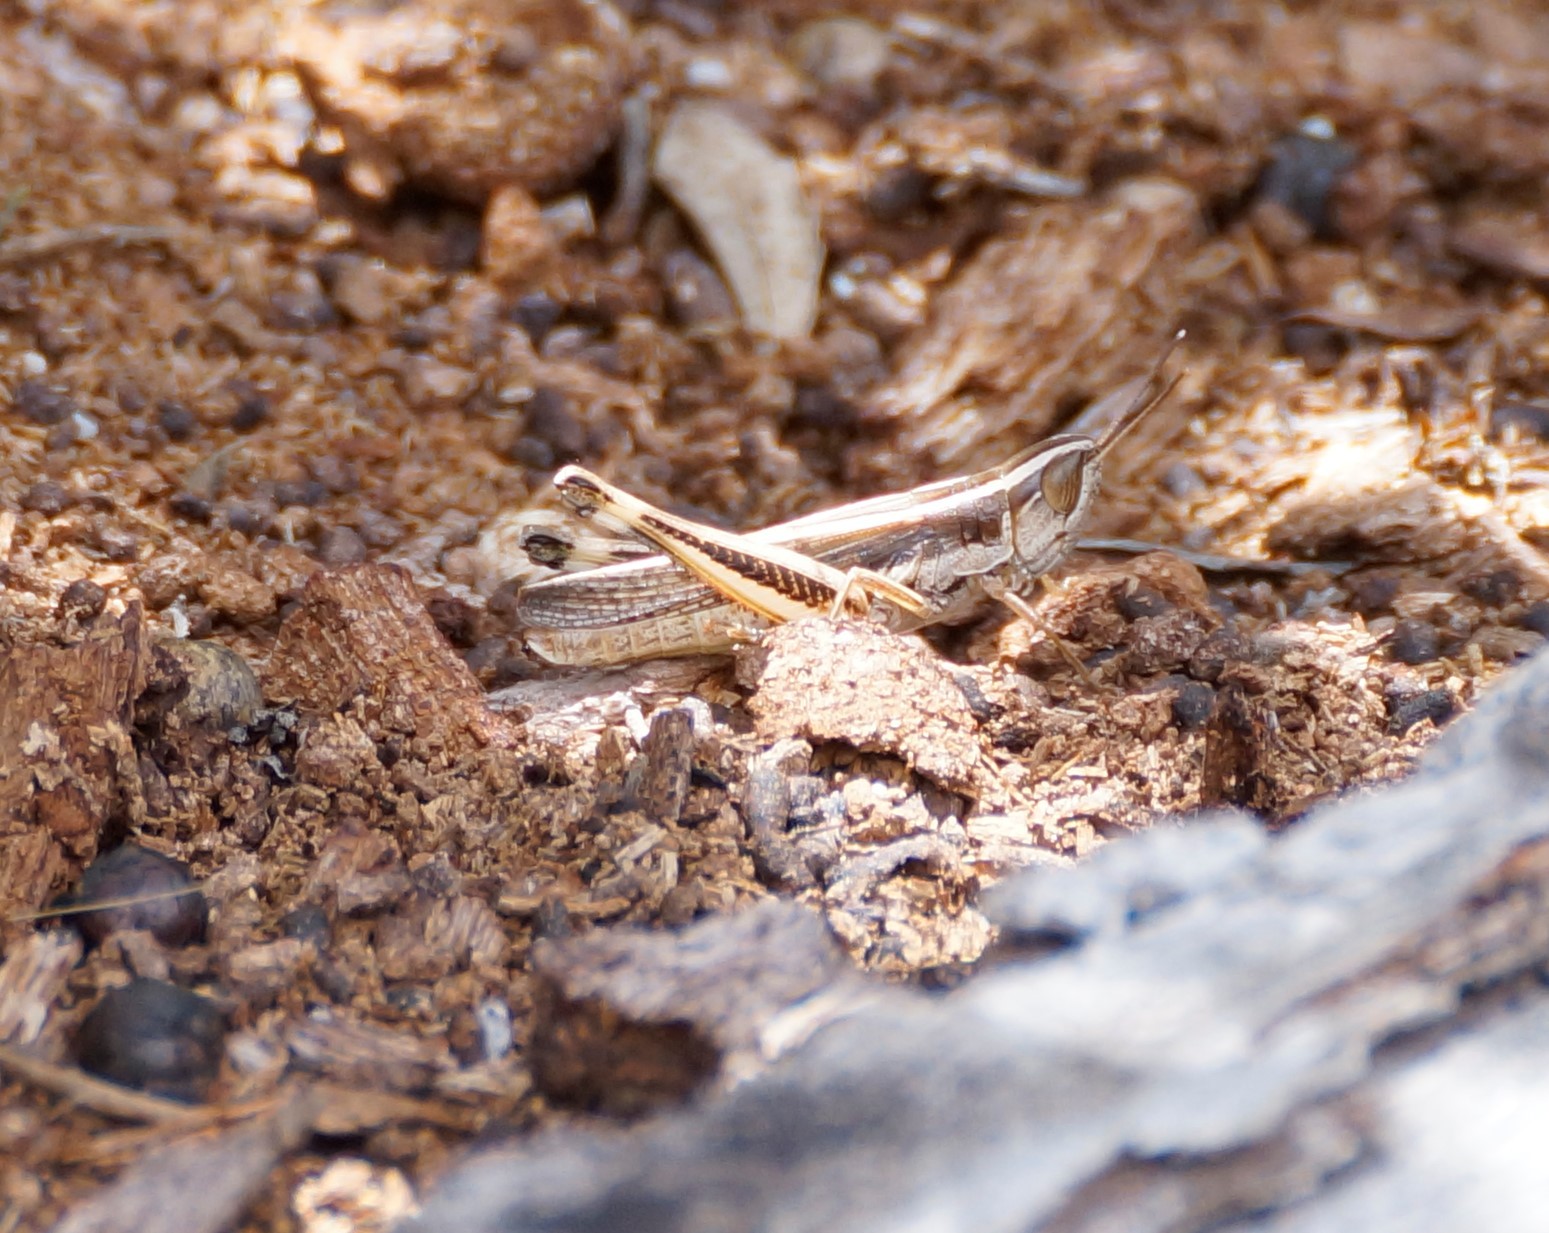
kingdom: Animalia
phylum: Arthropoda
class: Insecta
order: Orthoptera
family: Acrididae
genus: Macrotona
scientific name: Macrotona securiformis
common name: Inland macrotona
